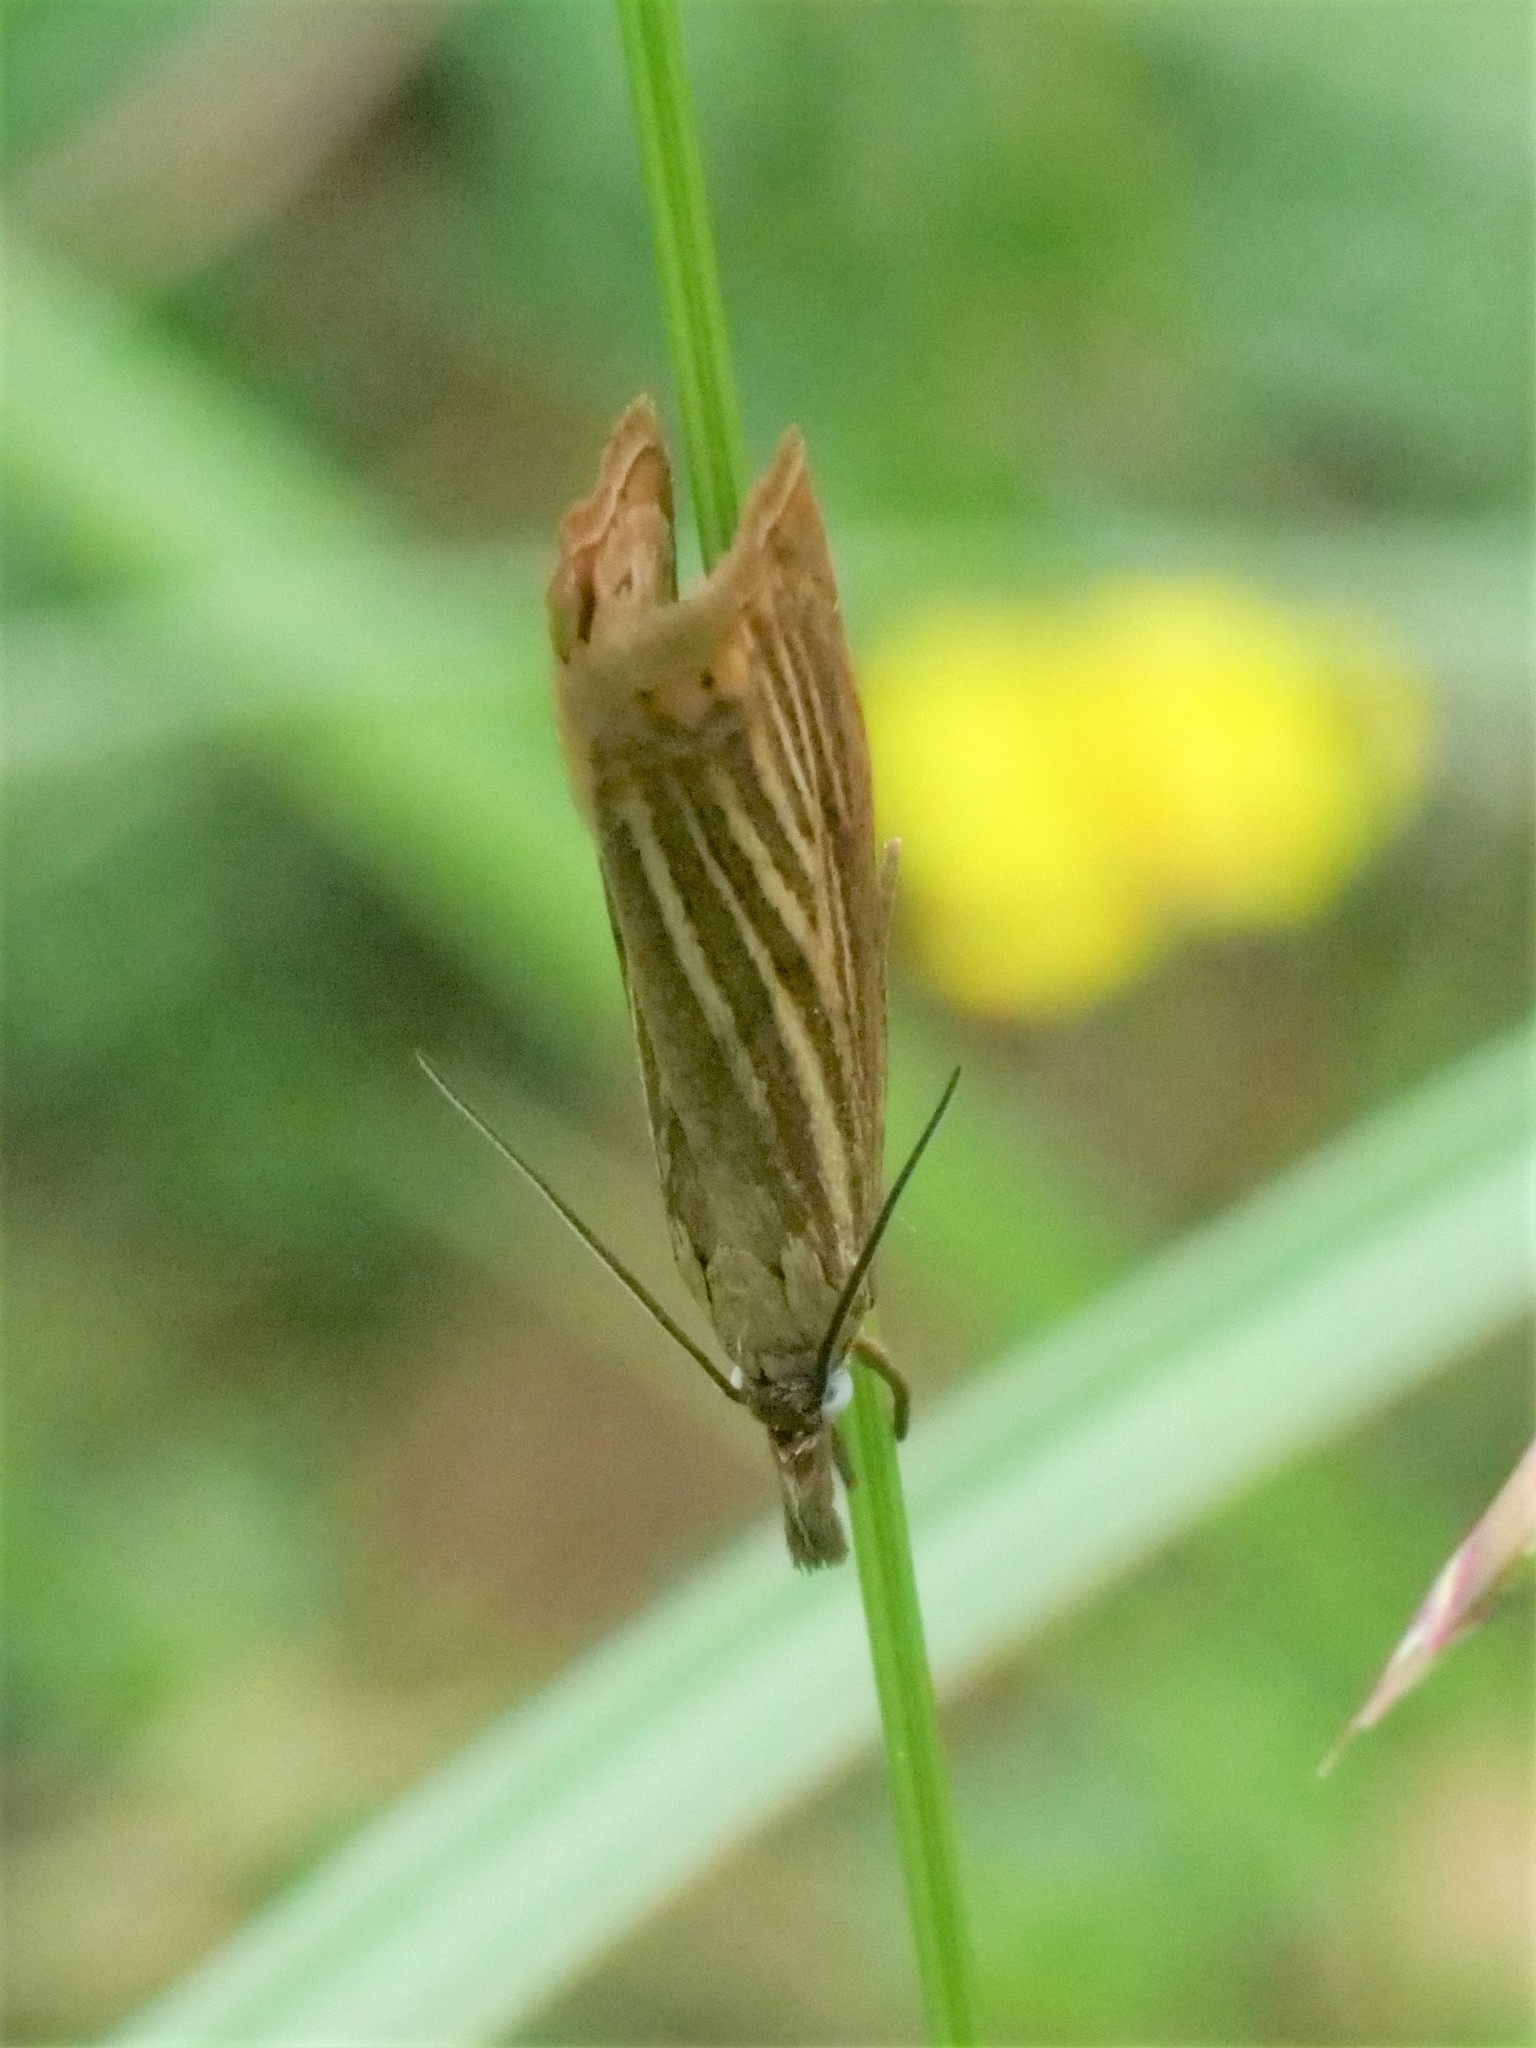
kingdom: Animalia
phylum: Arthropoda
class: Insecta
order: Lepidoptera
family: Crambidae
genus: Chrysoteuchia
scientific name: Chrysoteuchia culmella
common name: Garden grass-veneer
